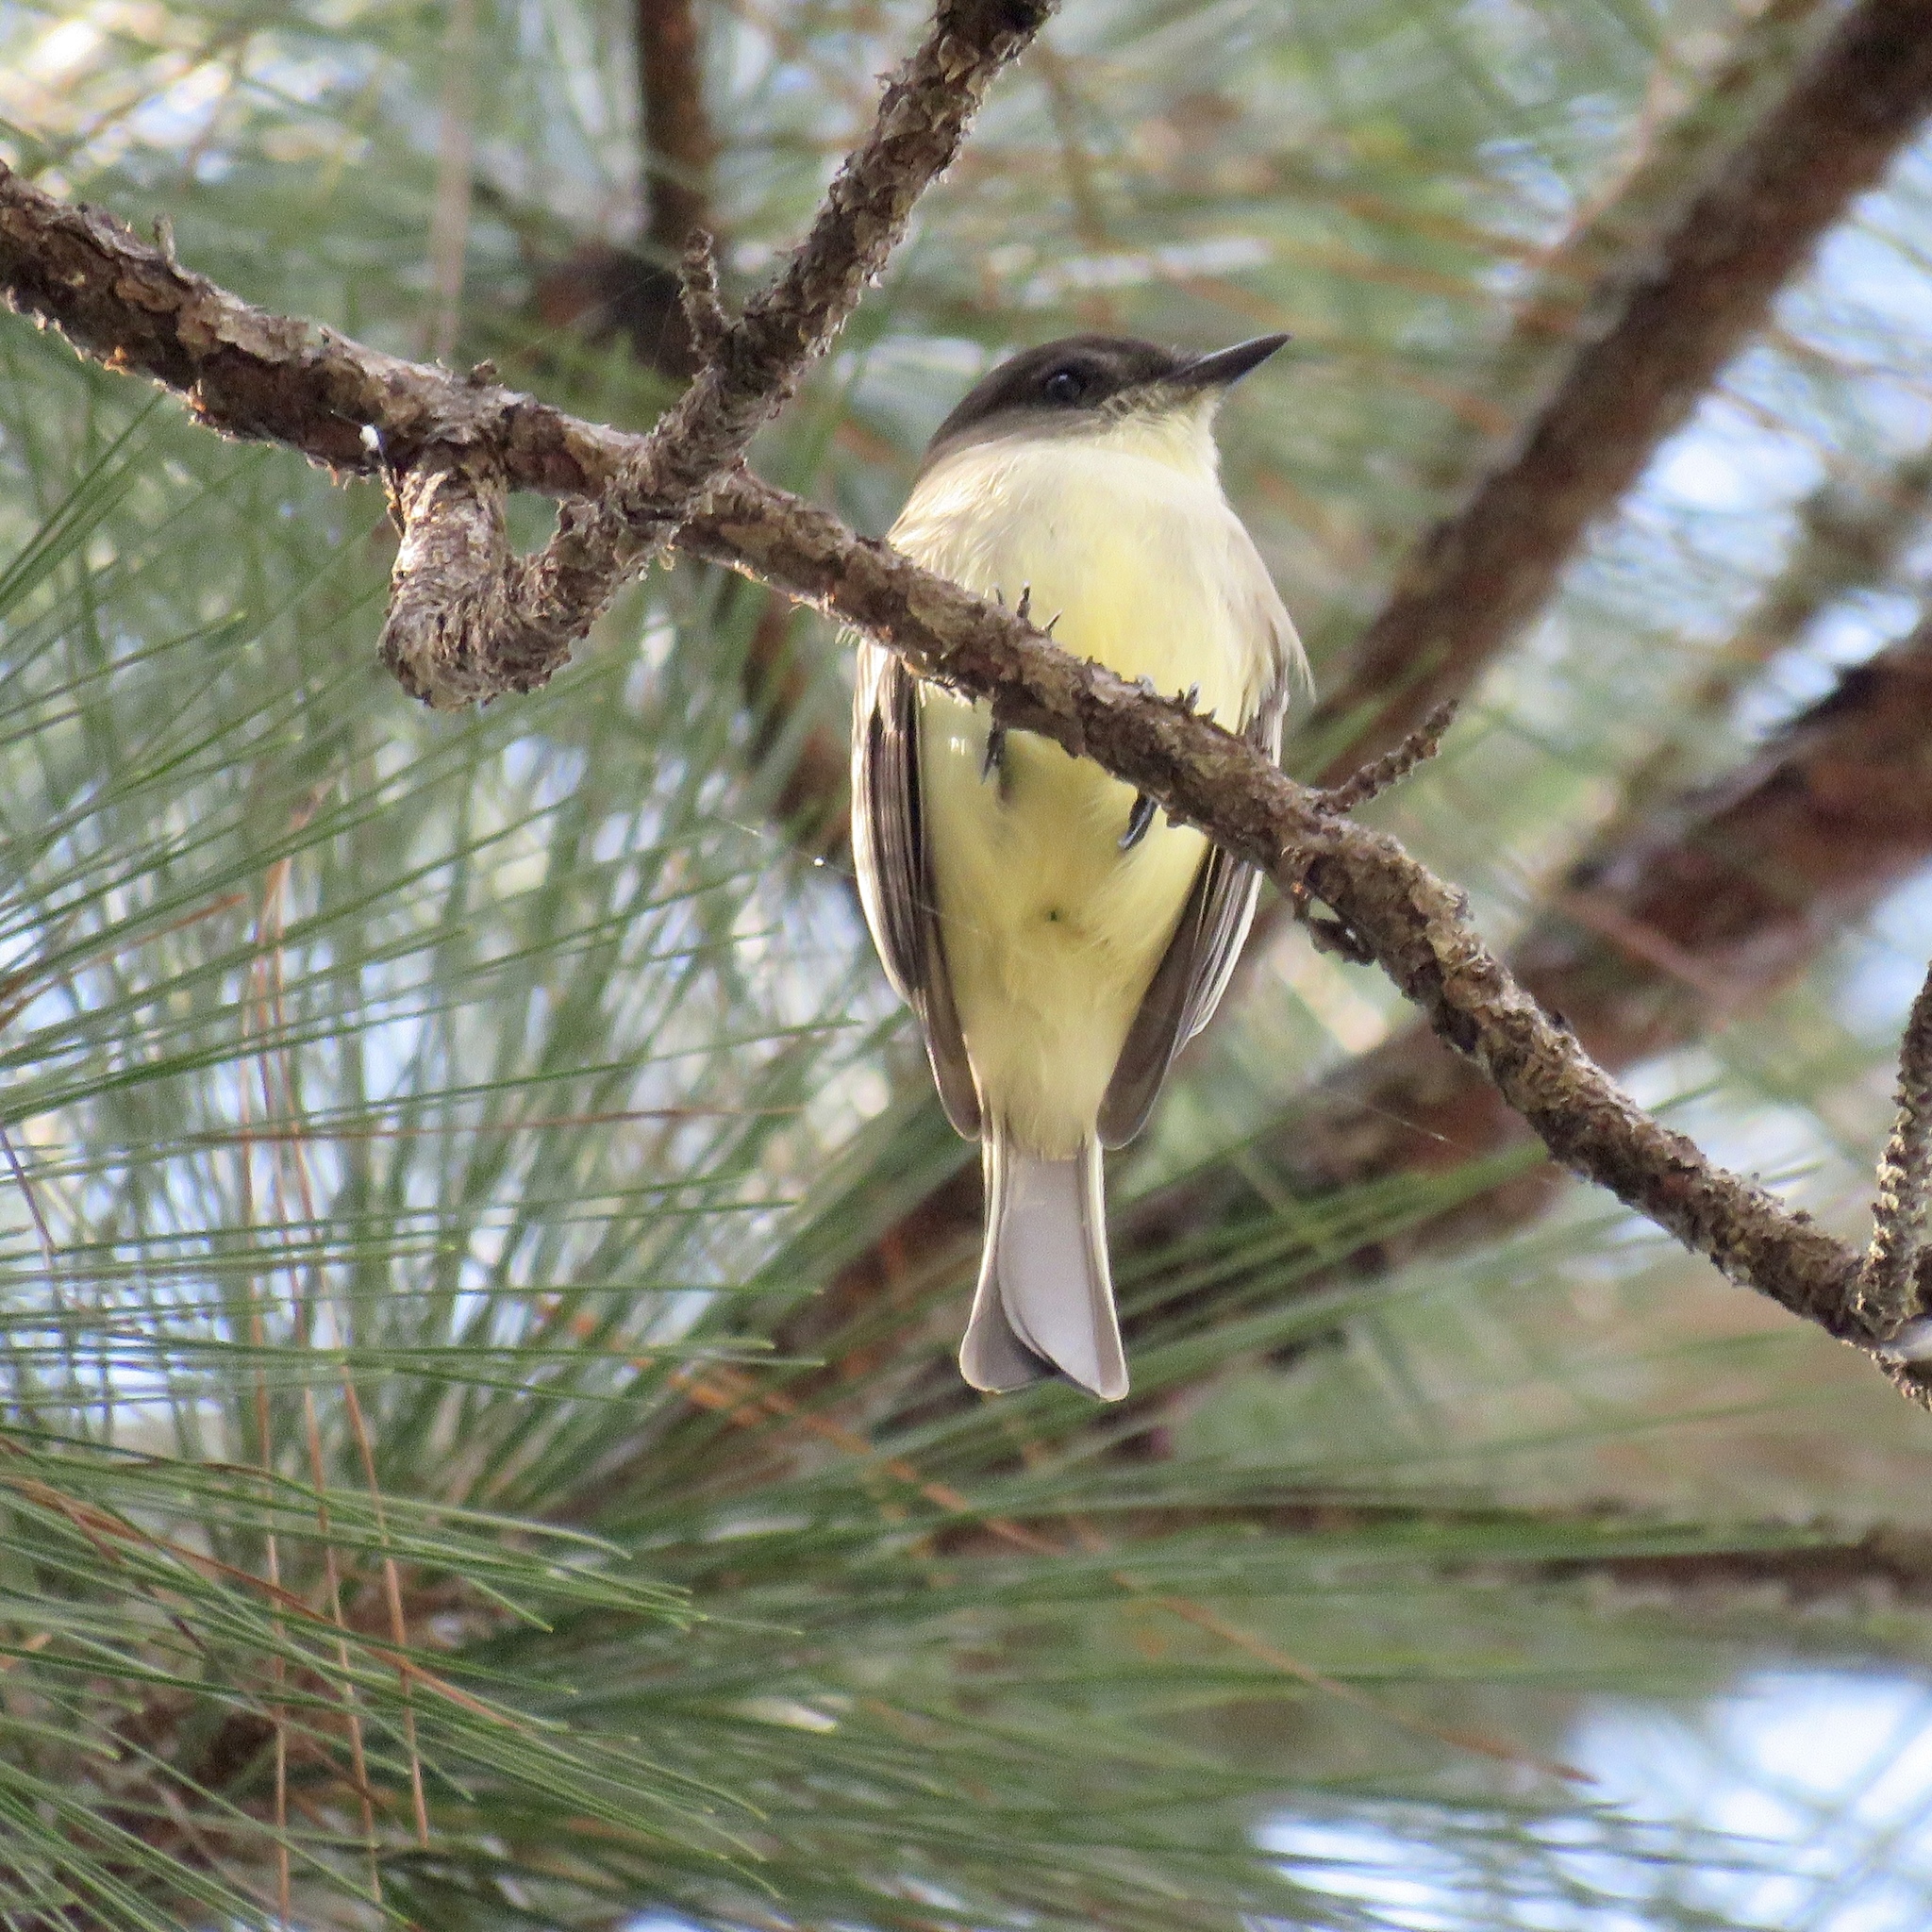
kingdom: Animalia
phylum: Chordata
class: Aves
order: Passeriformes
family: Tyrannidae
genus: Sayornis
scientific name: Sayornis phoebe
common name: Eastern phoebe
